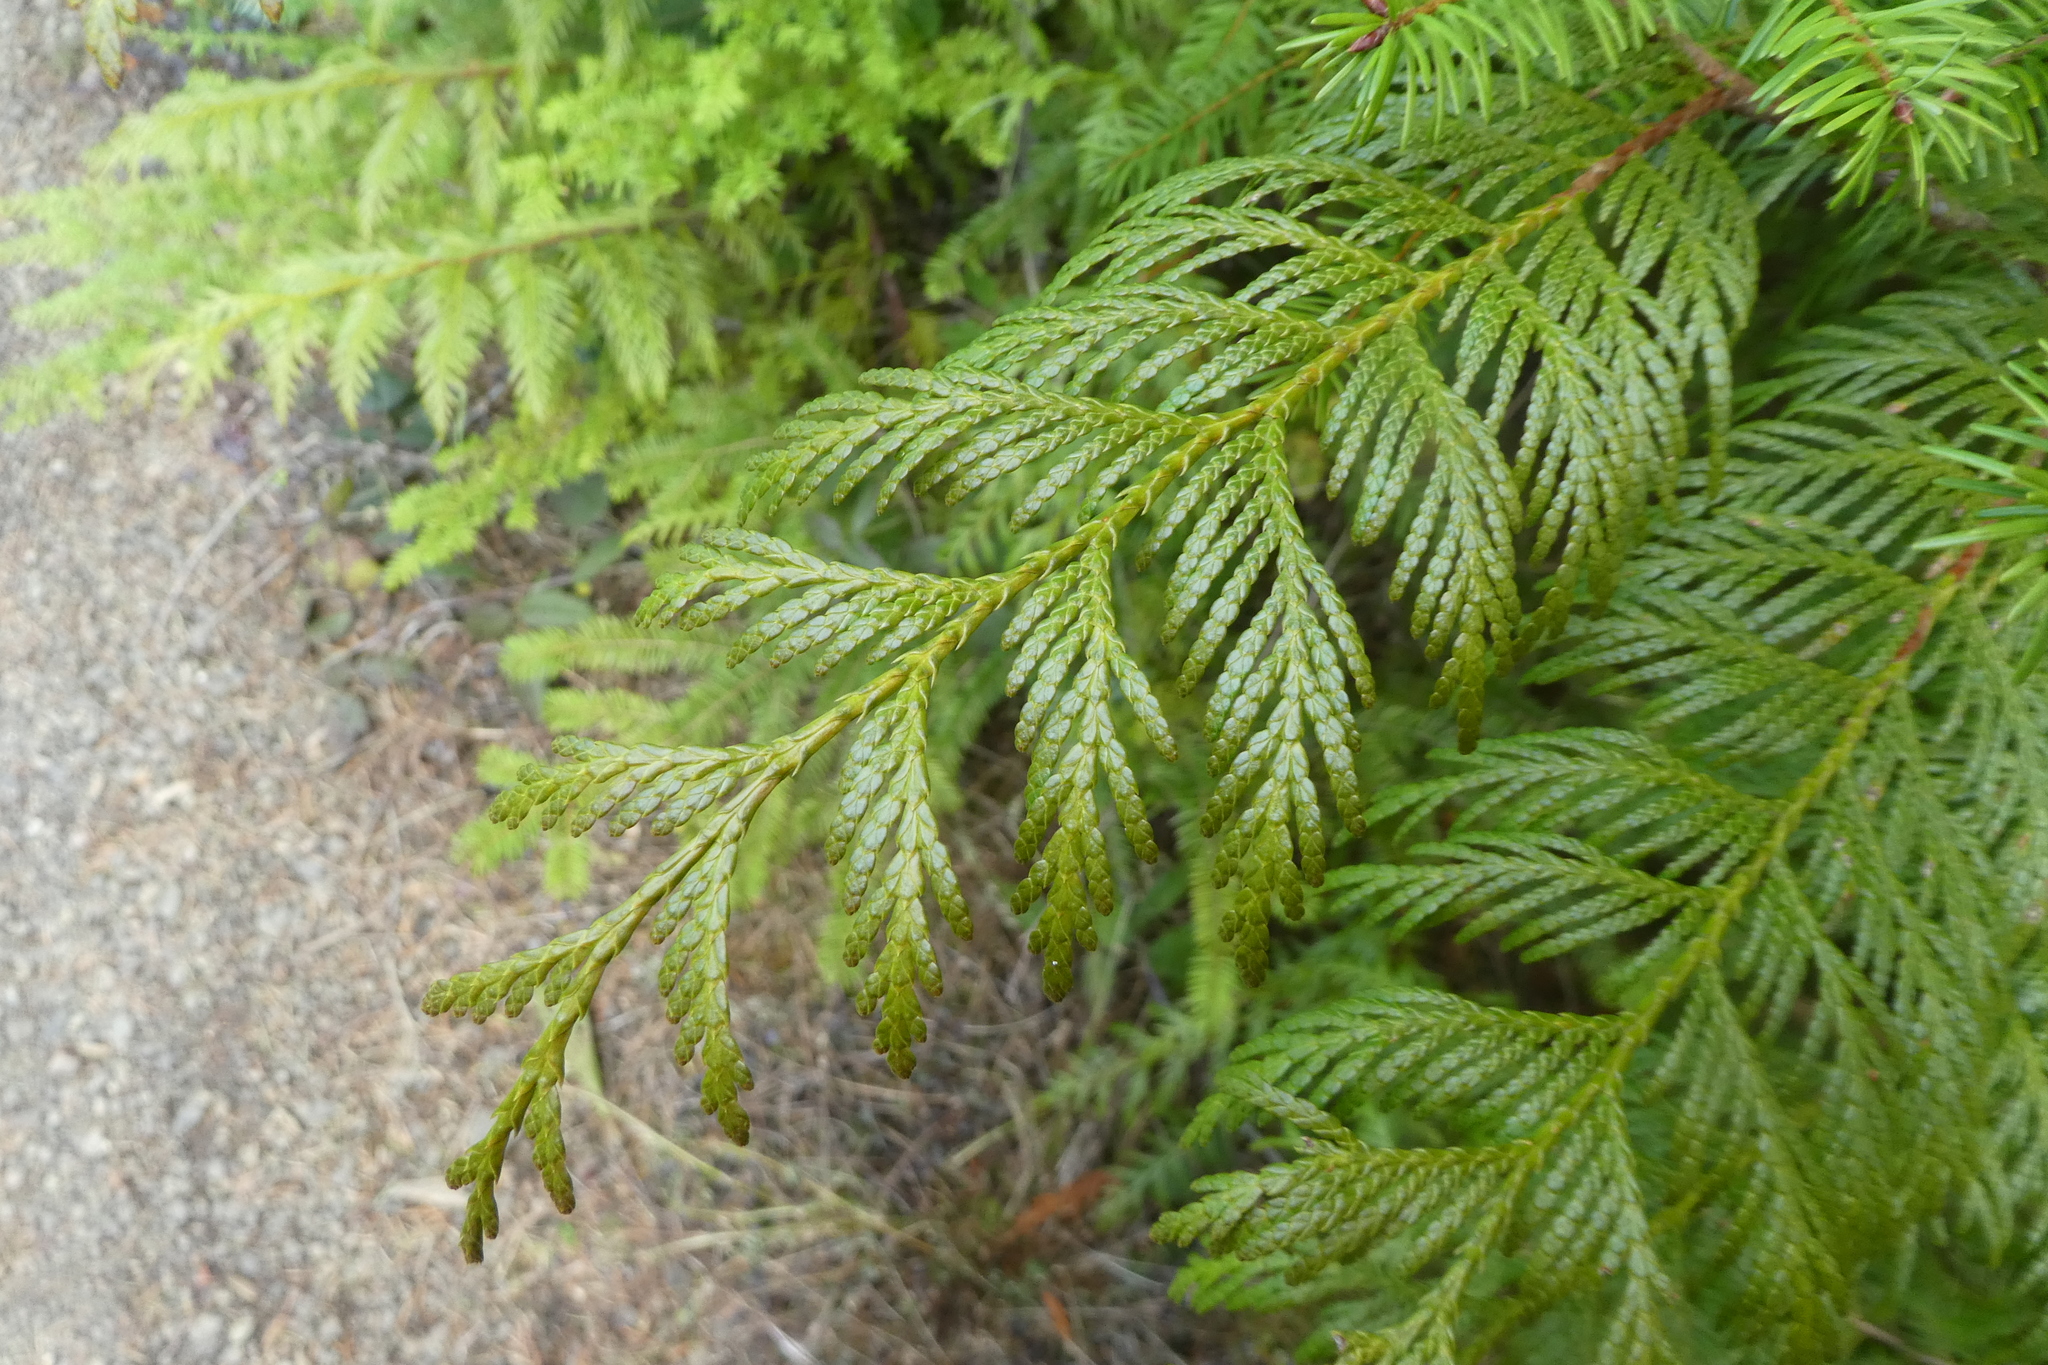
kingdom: Plantae
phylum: Tracheophyta
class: Pinopsida
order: Pinales
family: Cupressaceae
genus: Thuja
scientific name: Thuja plicata
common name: Western red-cedar
